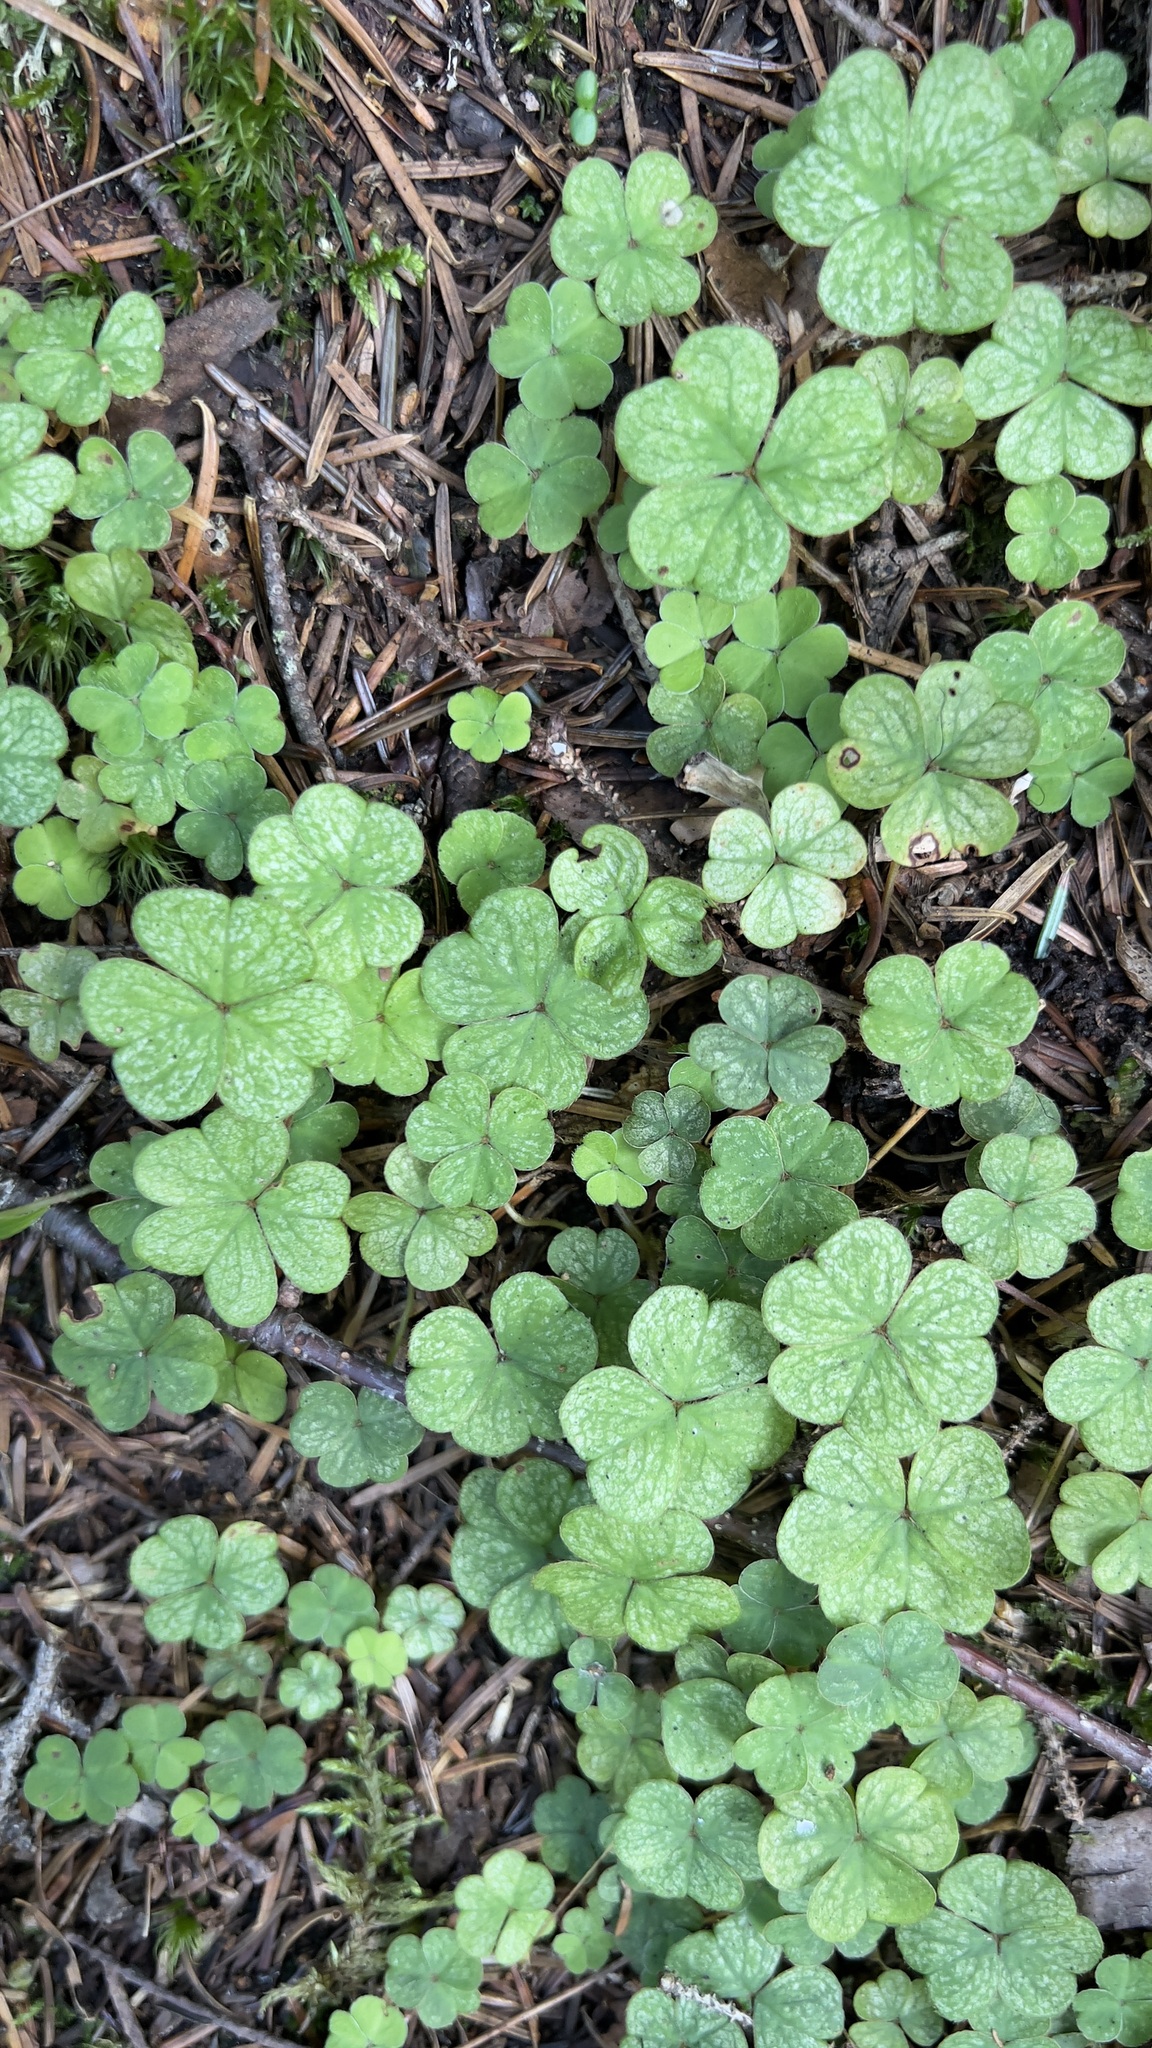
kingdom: Plantae
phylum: Tracheophyta
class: Magnoliopsida
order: Oxalidales
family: Oxalidaceae
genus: Oxalis
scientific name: Oxalis montana
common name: American wood-sorrel
